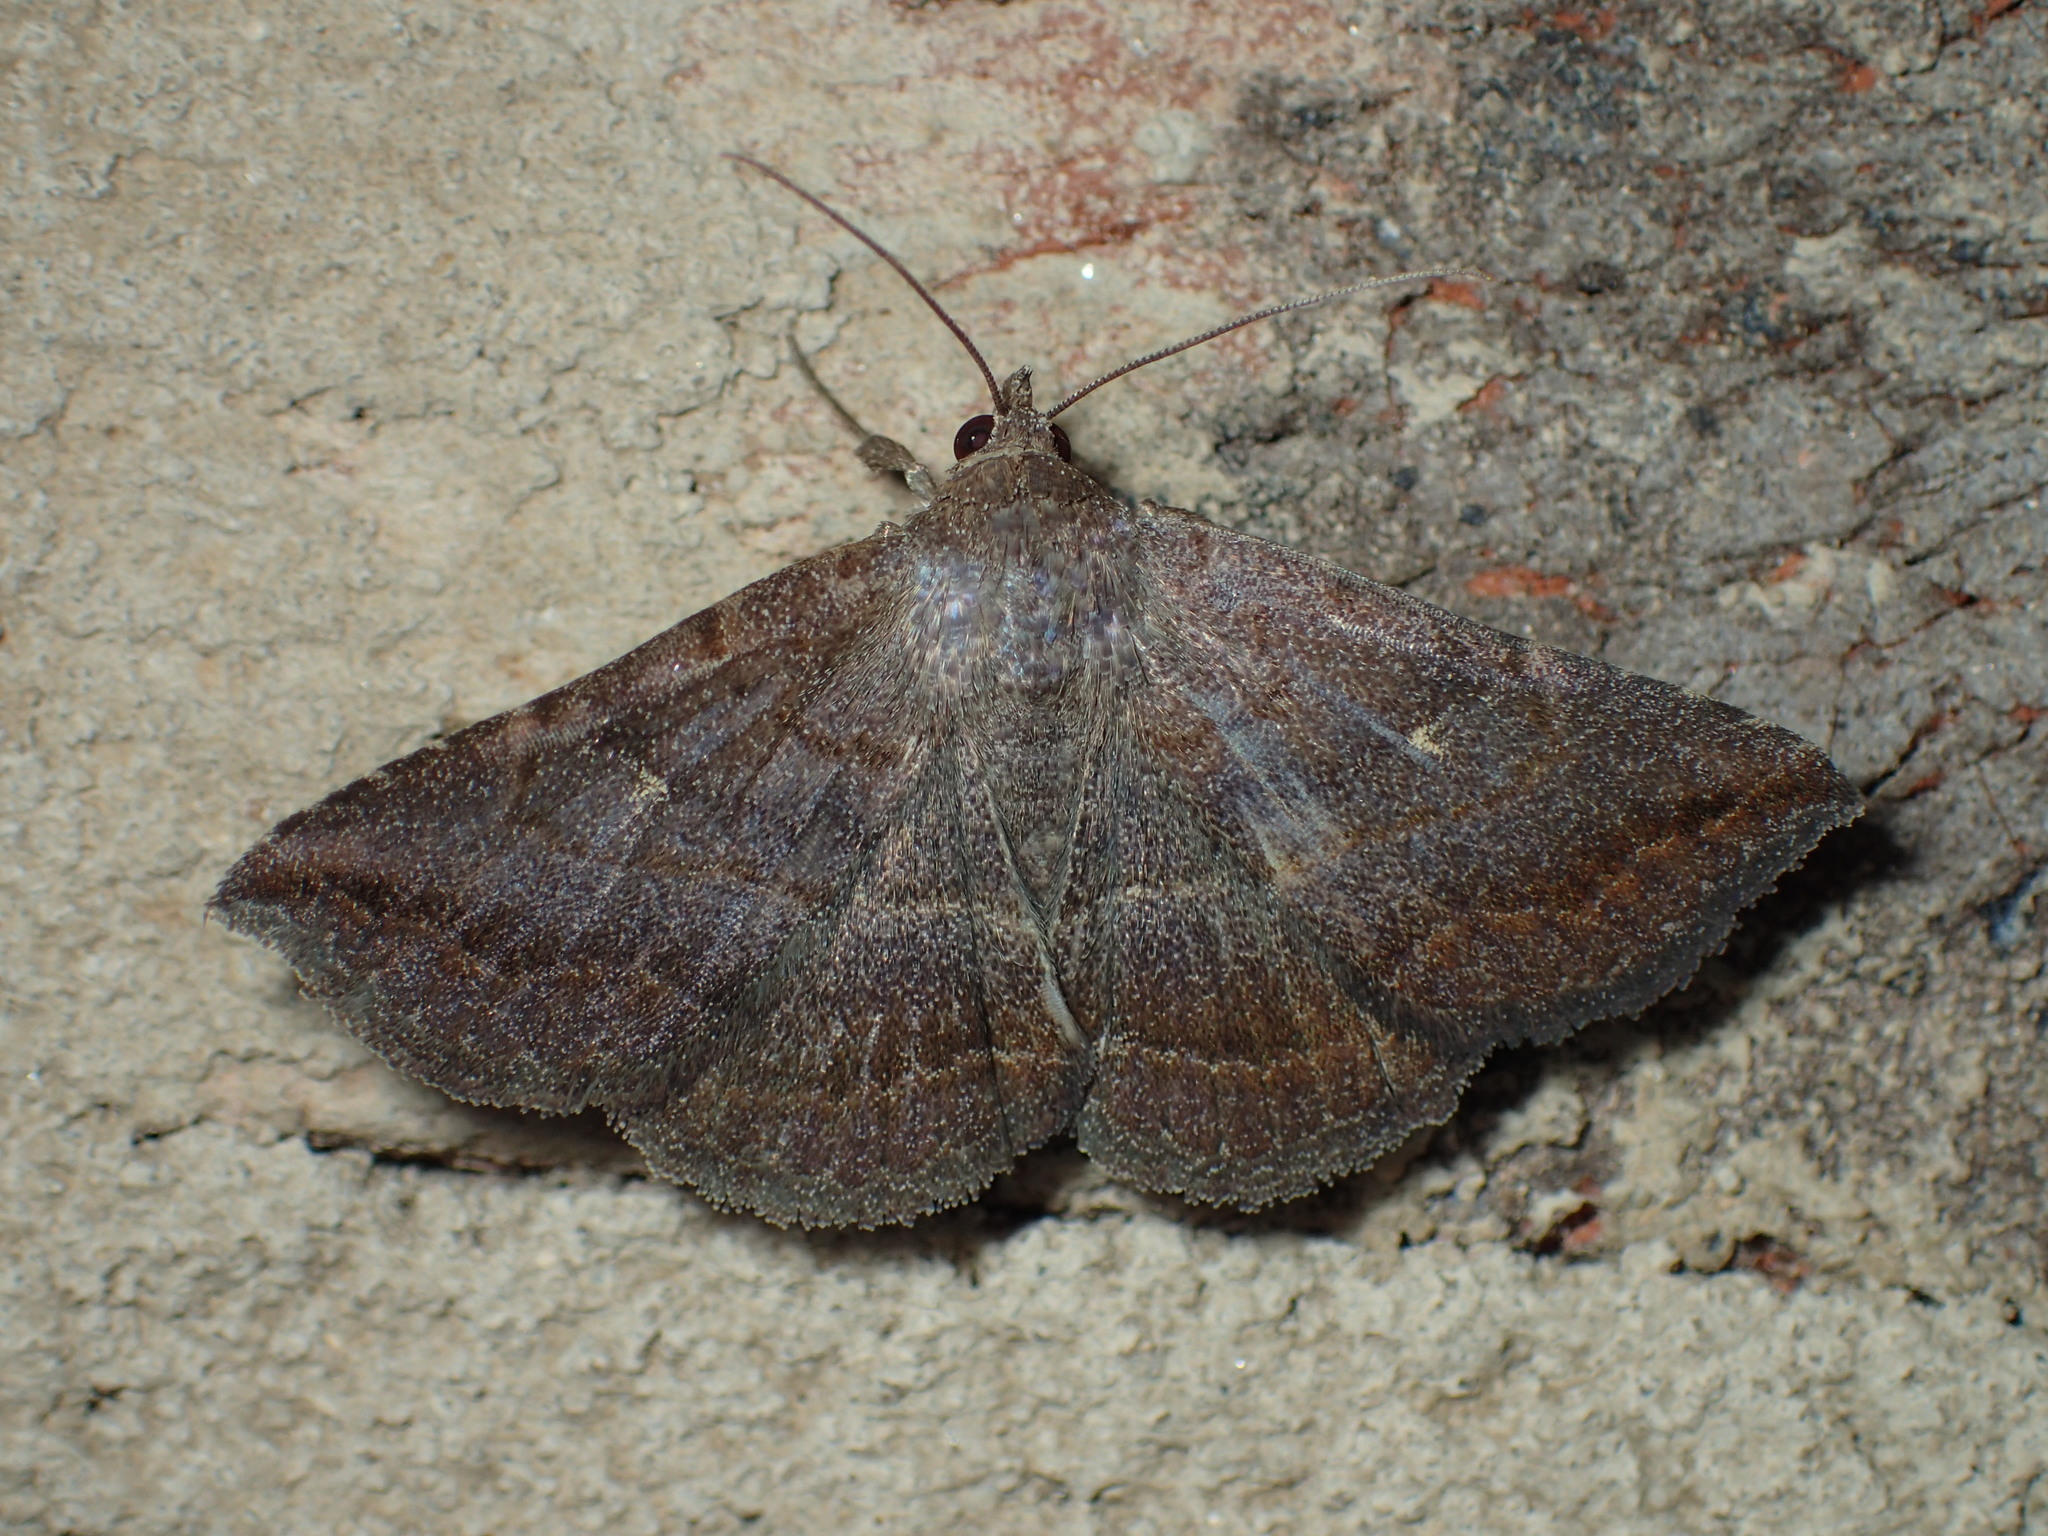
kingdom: Animalia
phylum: Arthropoda
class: Insecta
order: Lepidoptera
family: Erebidae
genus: Lesmone
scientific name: Lesmone detrahens
